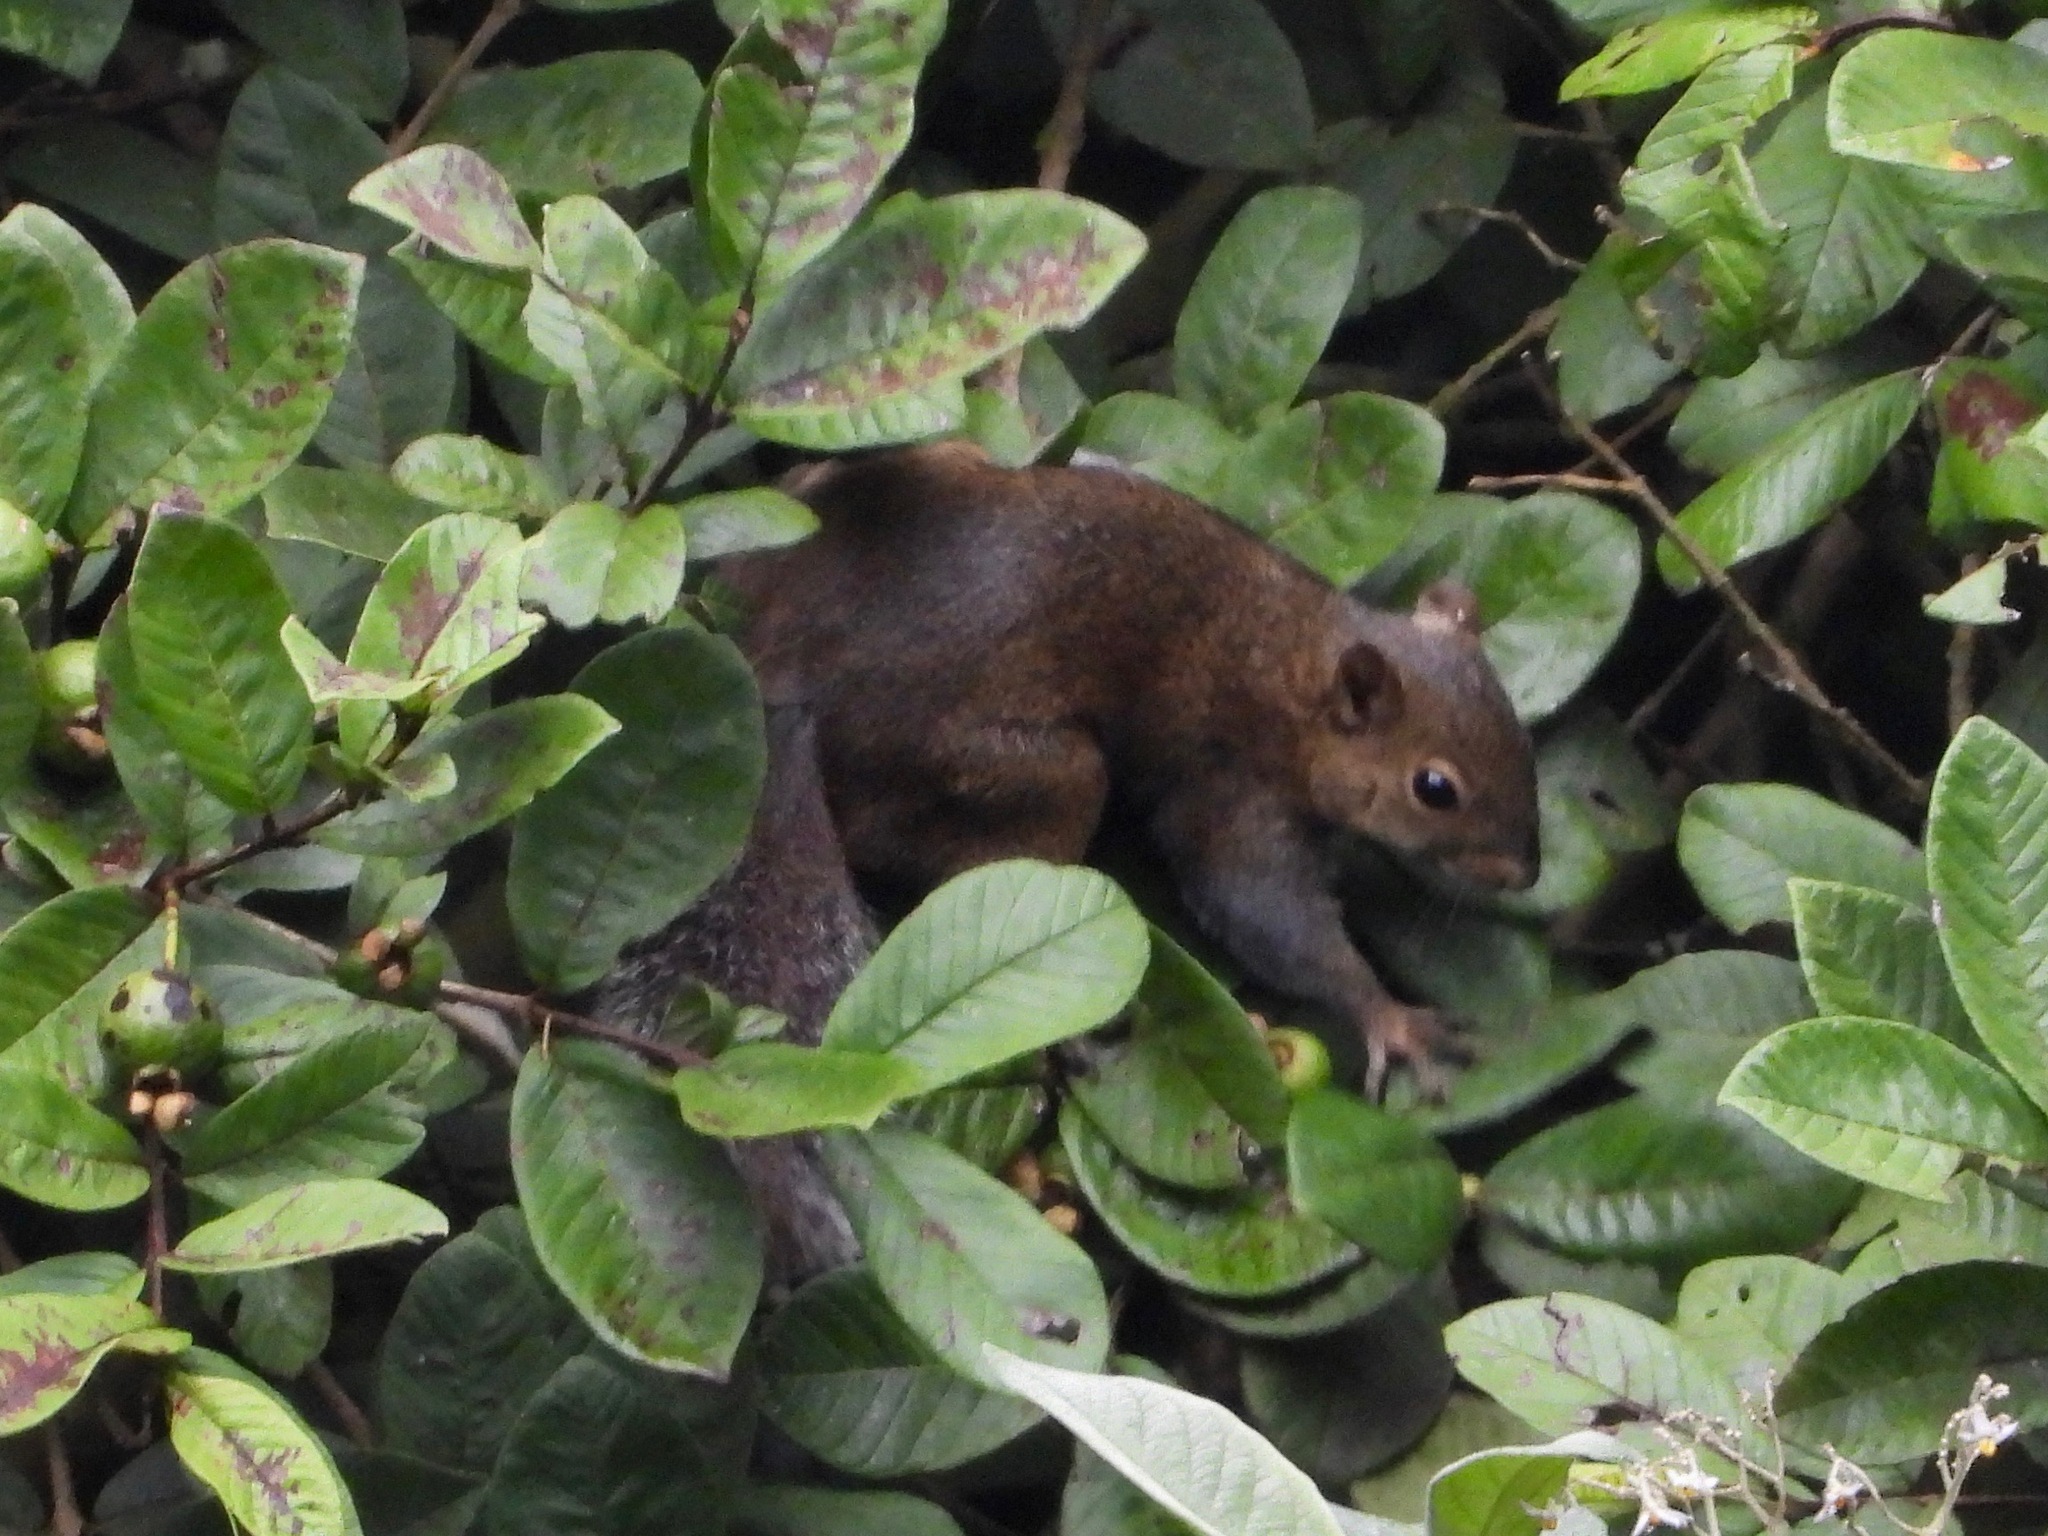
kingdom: Animalia
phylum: Chordata
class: Mammalia
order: Rodentia
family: Sciuridae
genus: Sciurus
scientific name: Sciurus deppei
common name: Deppe's squirrel
